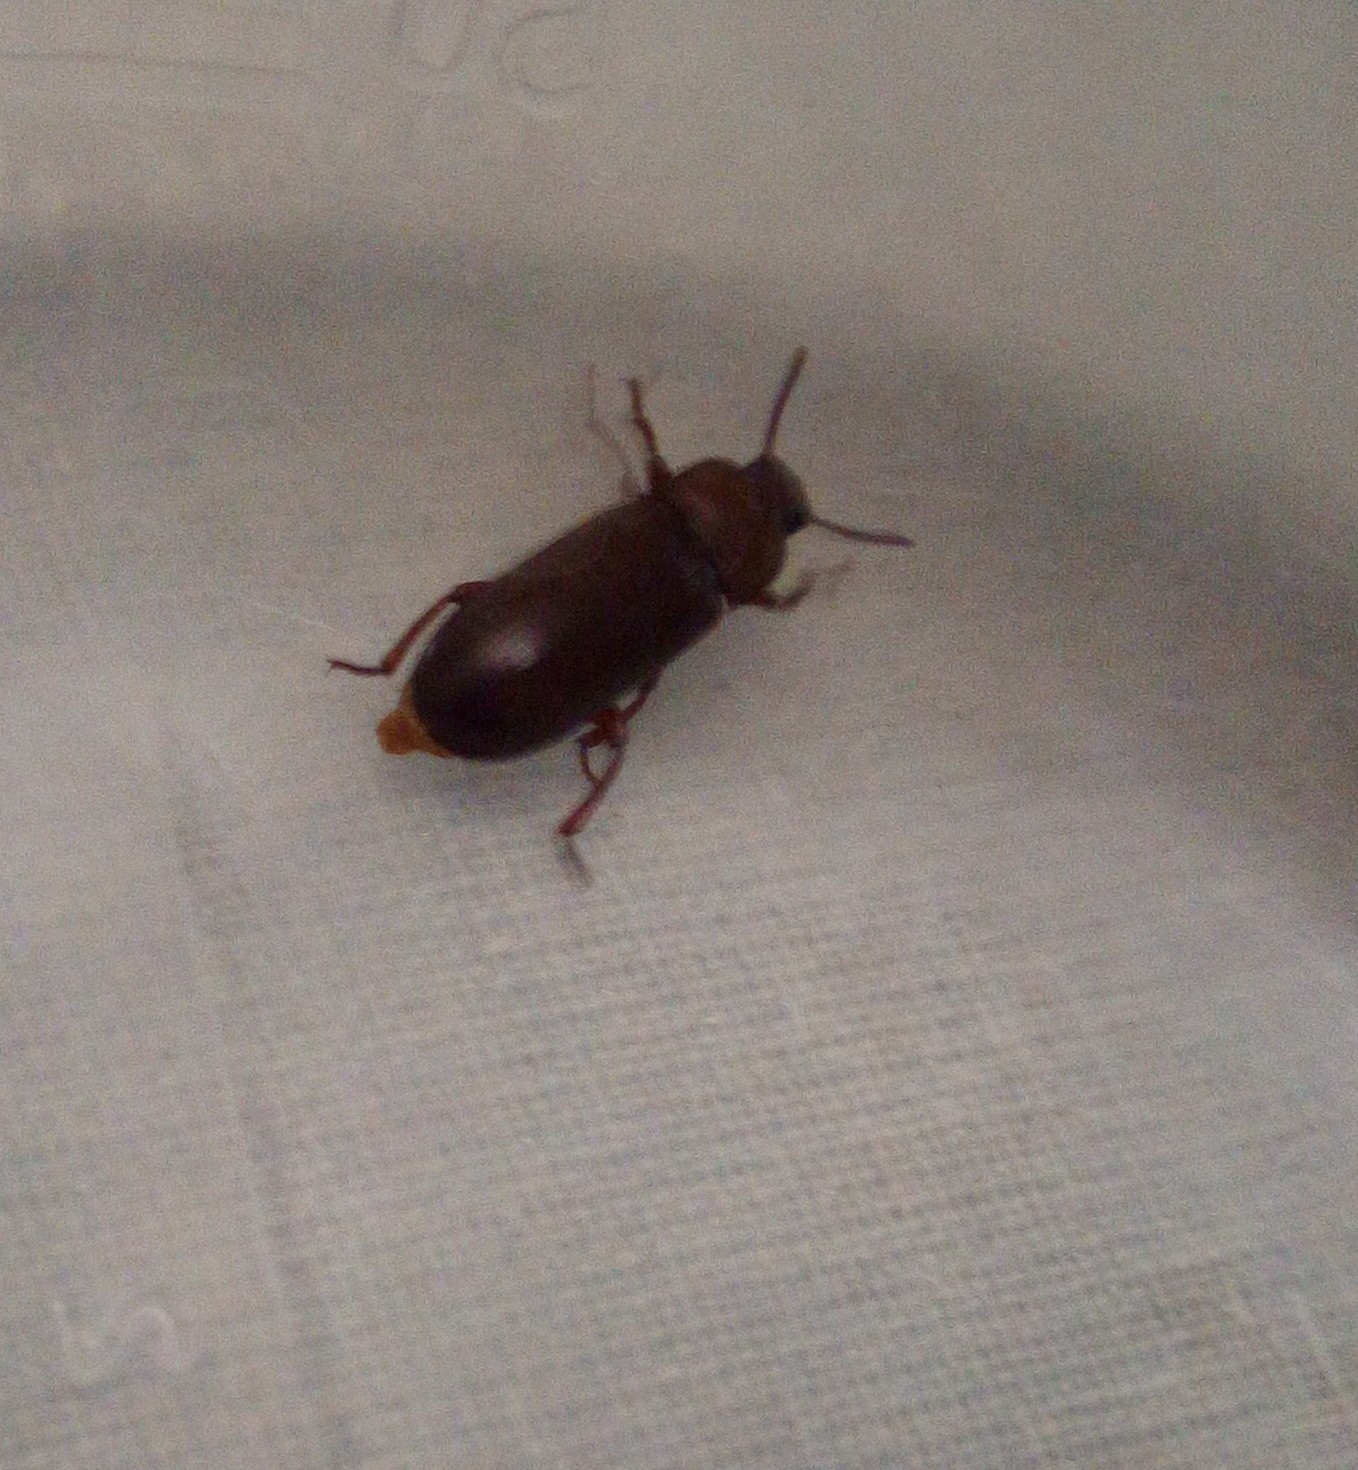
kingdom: Animalia
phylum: Arthropoda
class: Insecta
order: Coleoptera
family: Tenebrionidae
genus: Tenebrio
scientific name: Tenebrio molitor
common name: Hardback beetle
